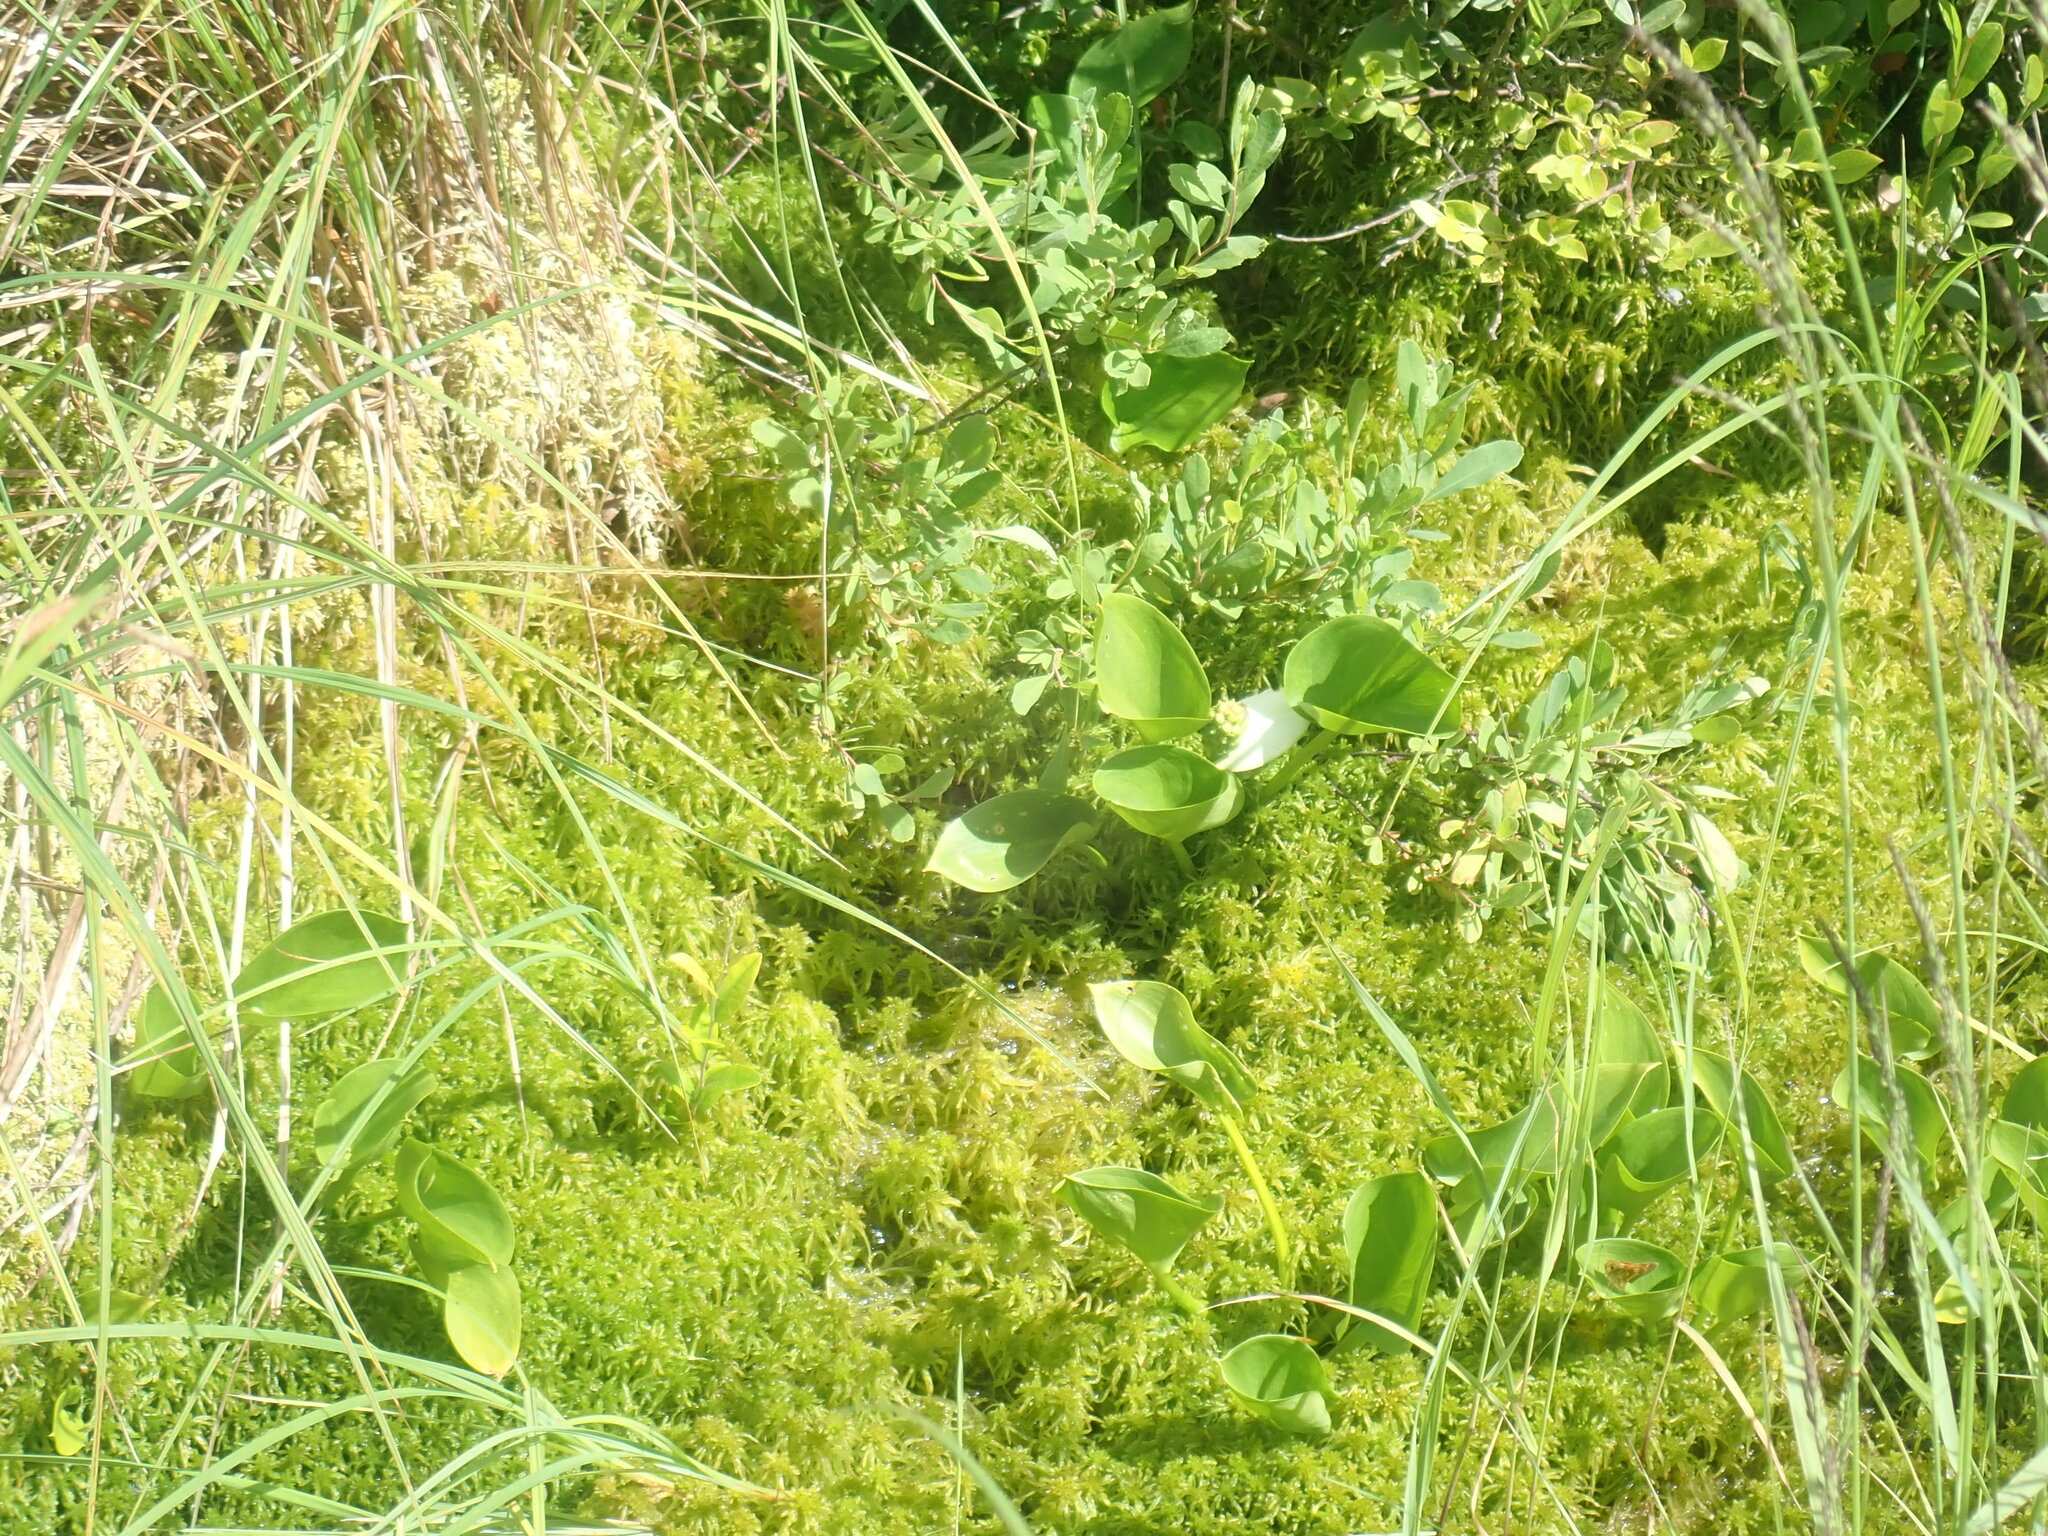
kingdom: Plantae
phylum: Tracheophyta
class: Liliopsida
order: Alismatales
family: Araceae
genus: Calla
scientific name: Calla palustris
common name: Bog arum
